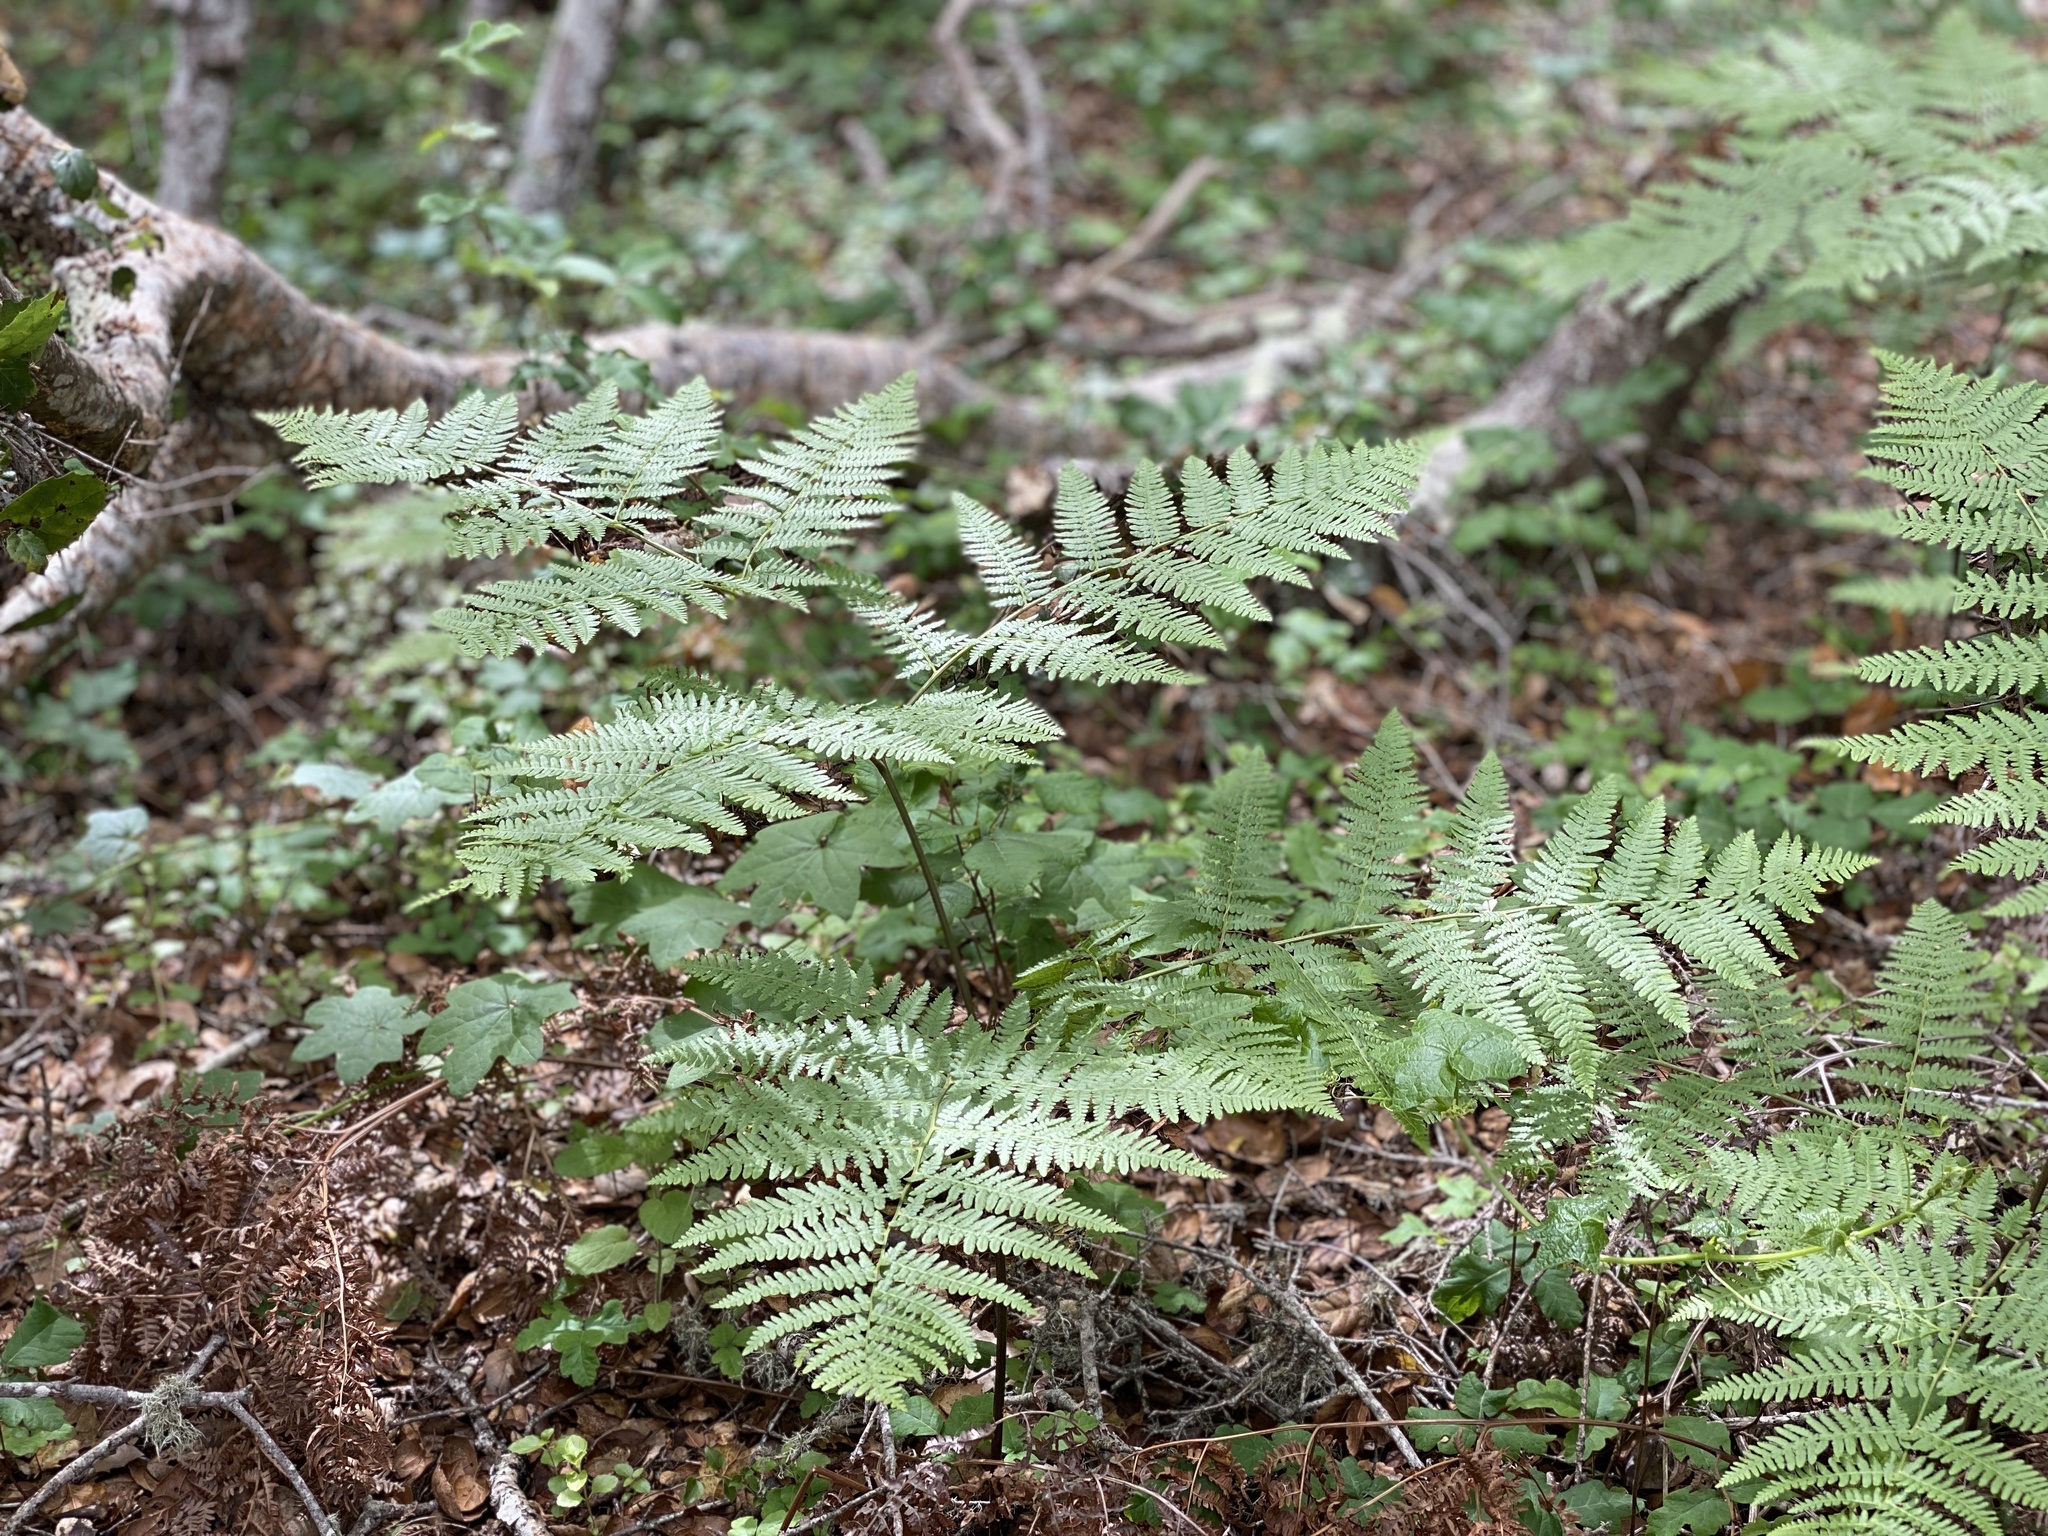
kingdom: Plantae
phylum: Tracheophyta
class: Polypodiopsida
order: Polypodiales
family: Dennstaedtiaceae
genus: Pteridium
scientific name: Pteridium aquilinum
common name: Bracken
